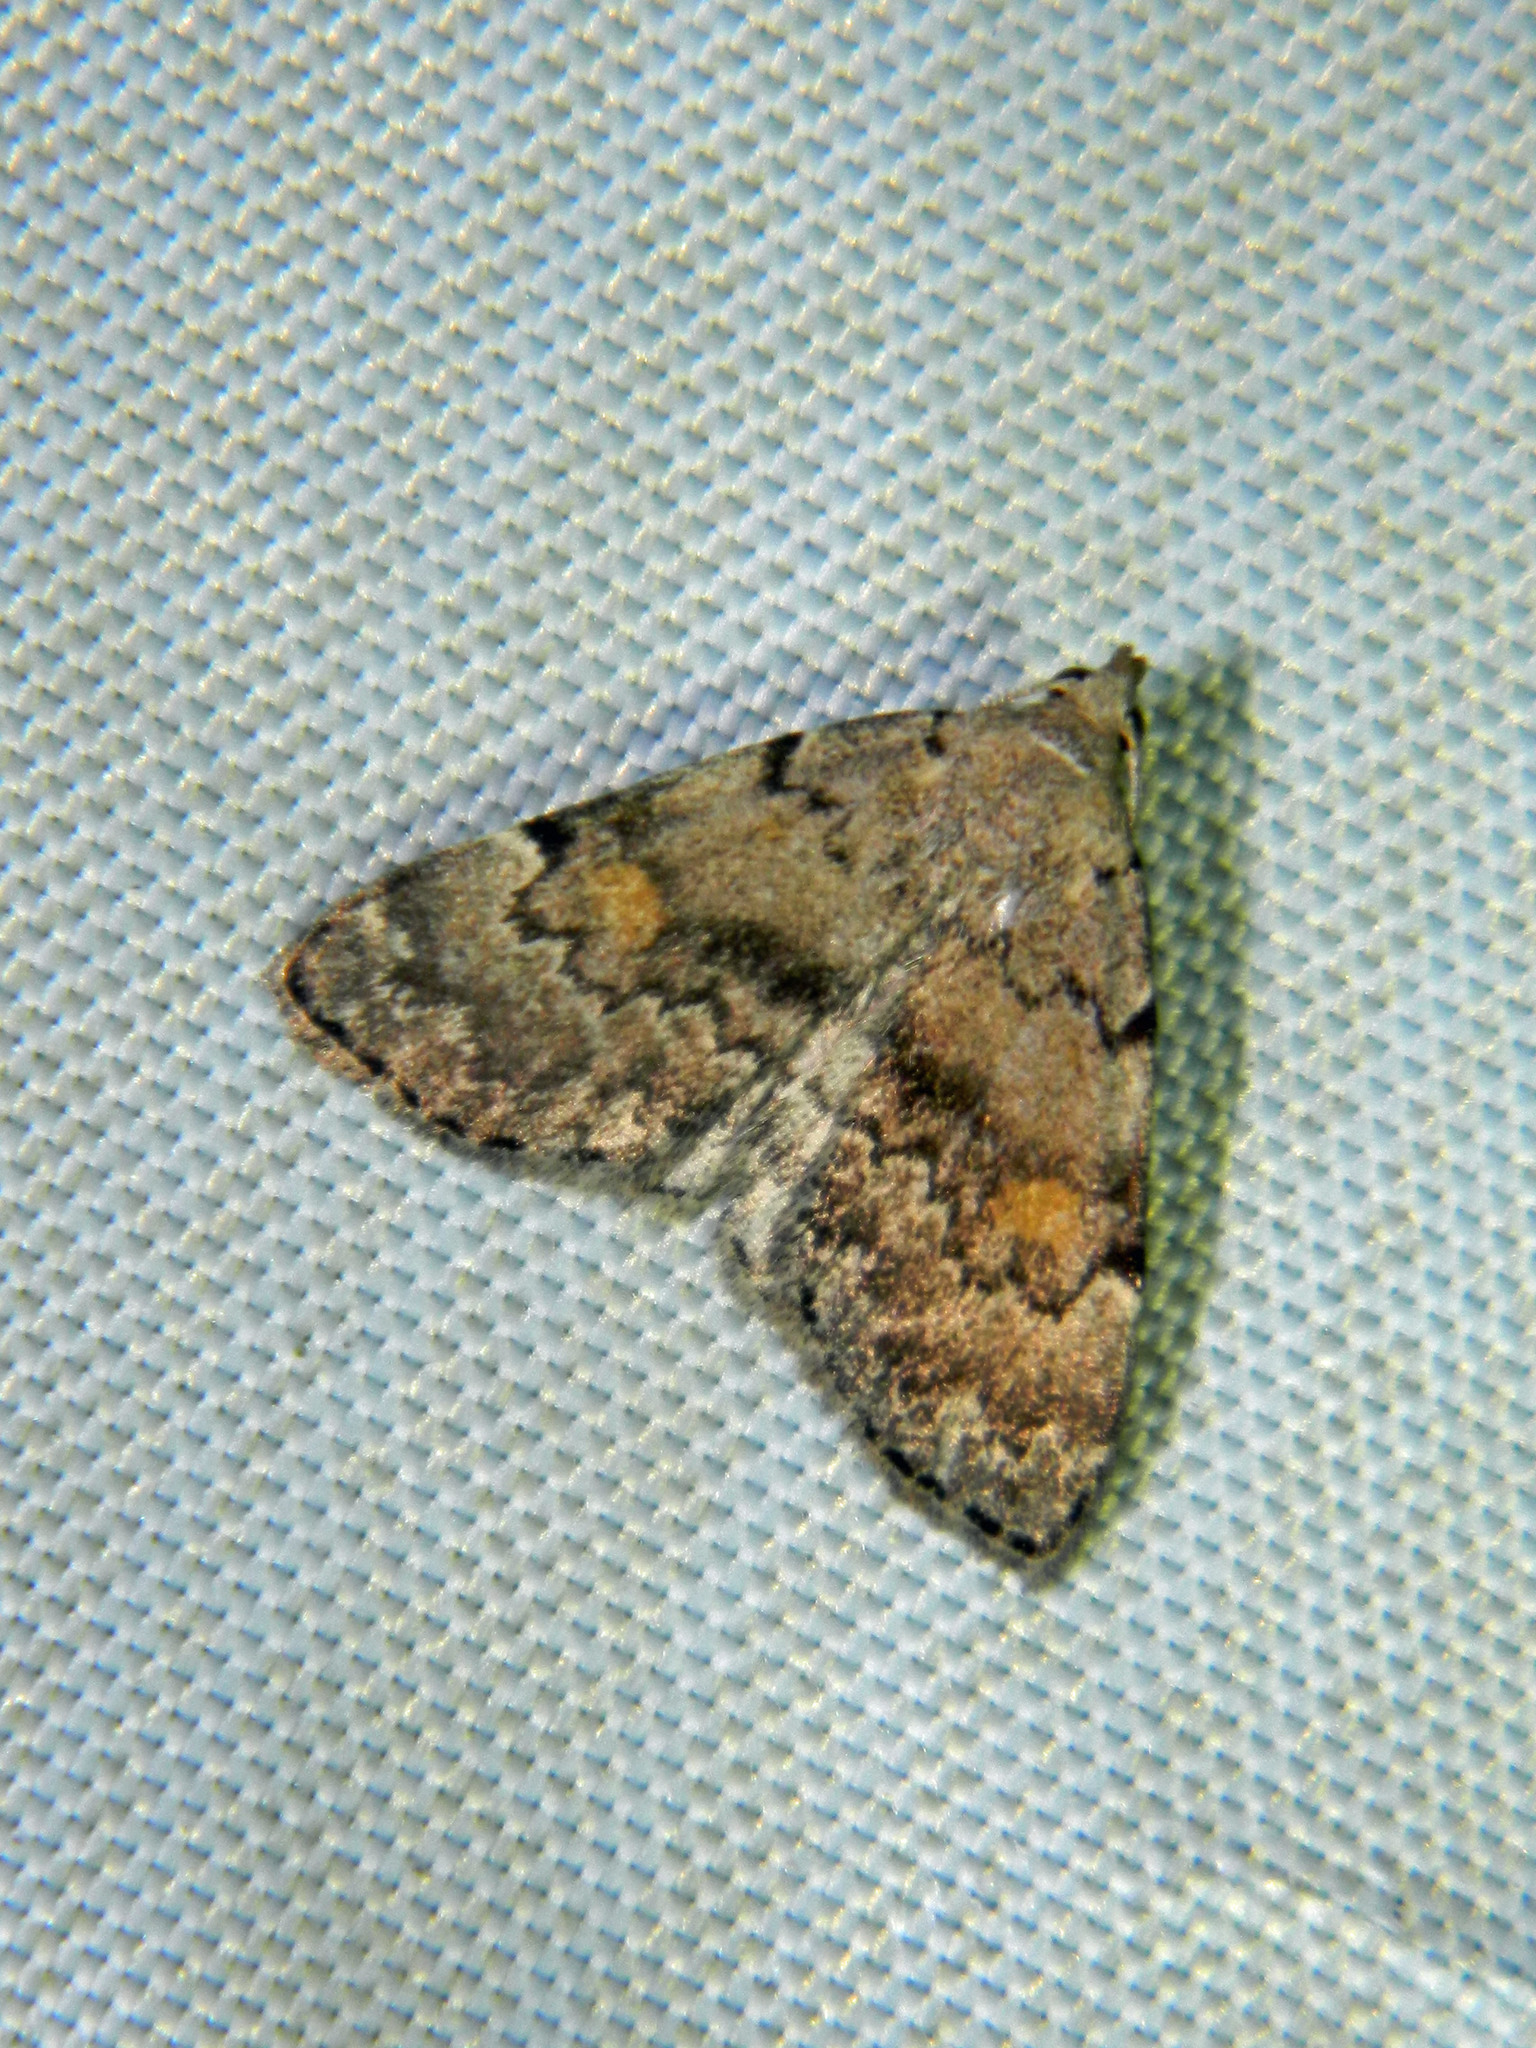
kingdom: Animalia
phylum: Arthropoda
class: Insecta
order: Lepidoptera
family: Erebidae
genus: Idia
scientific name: Idia aemula
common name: Common idia moth
